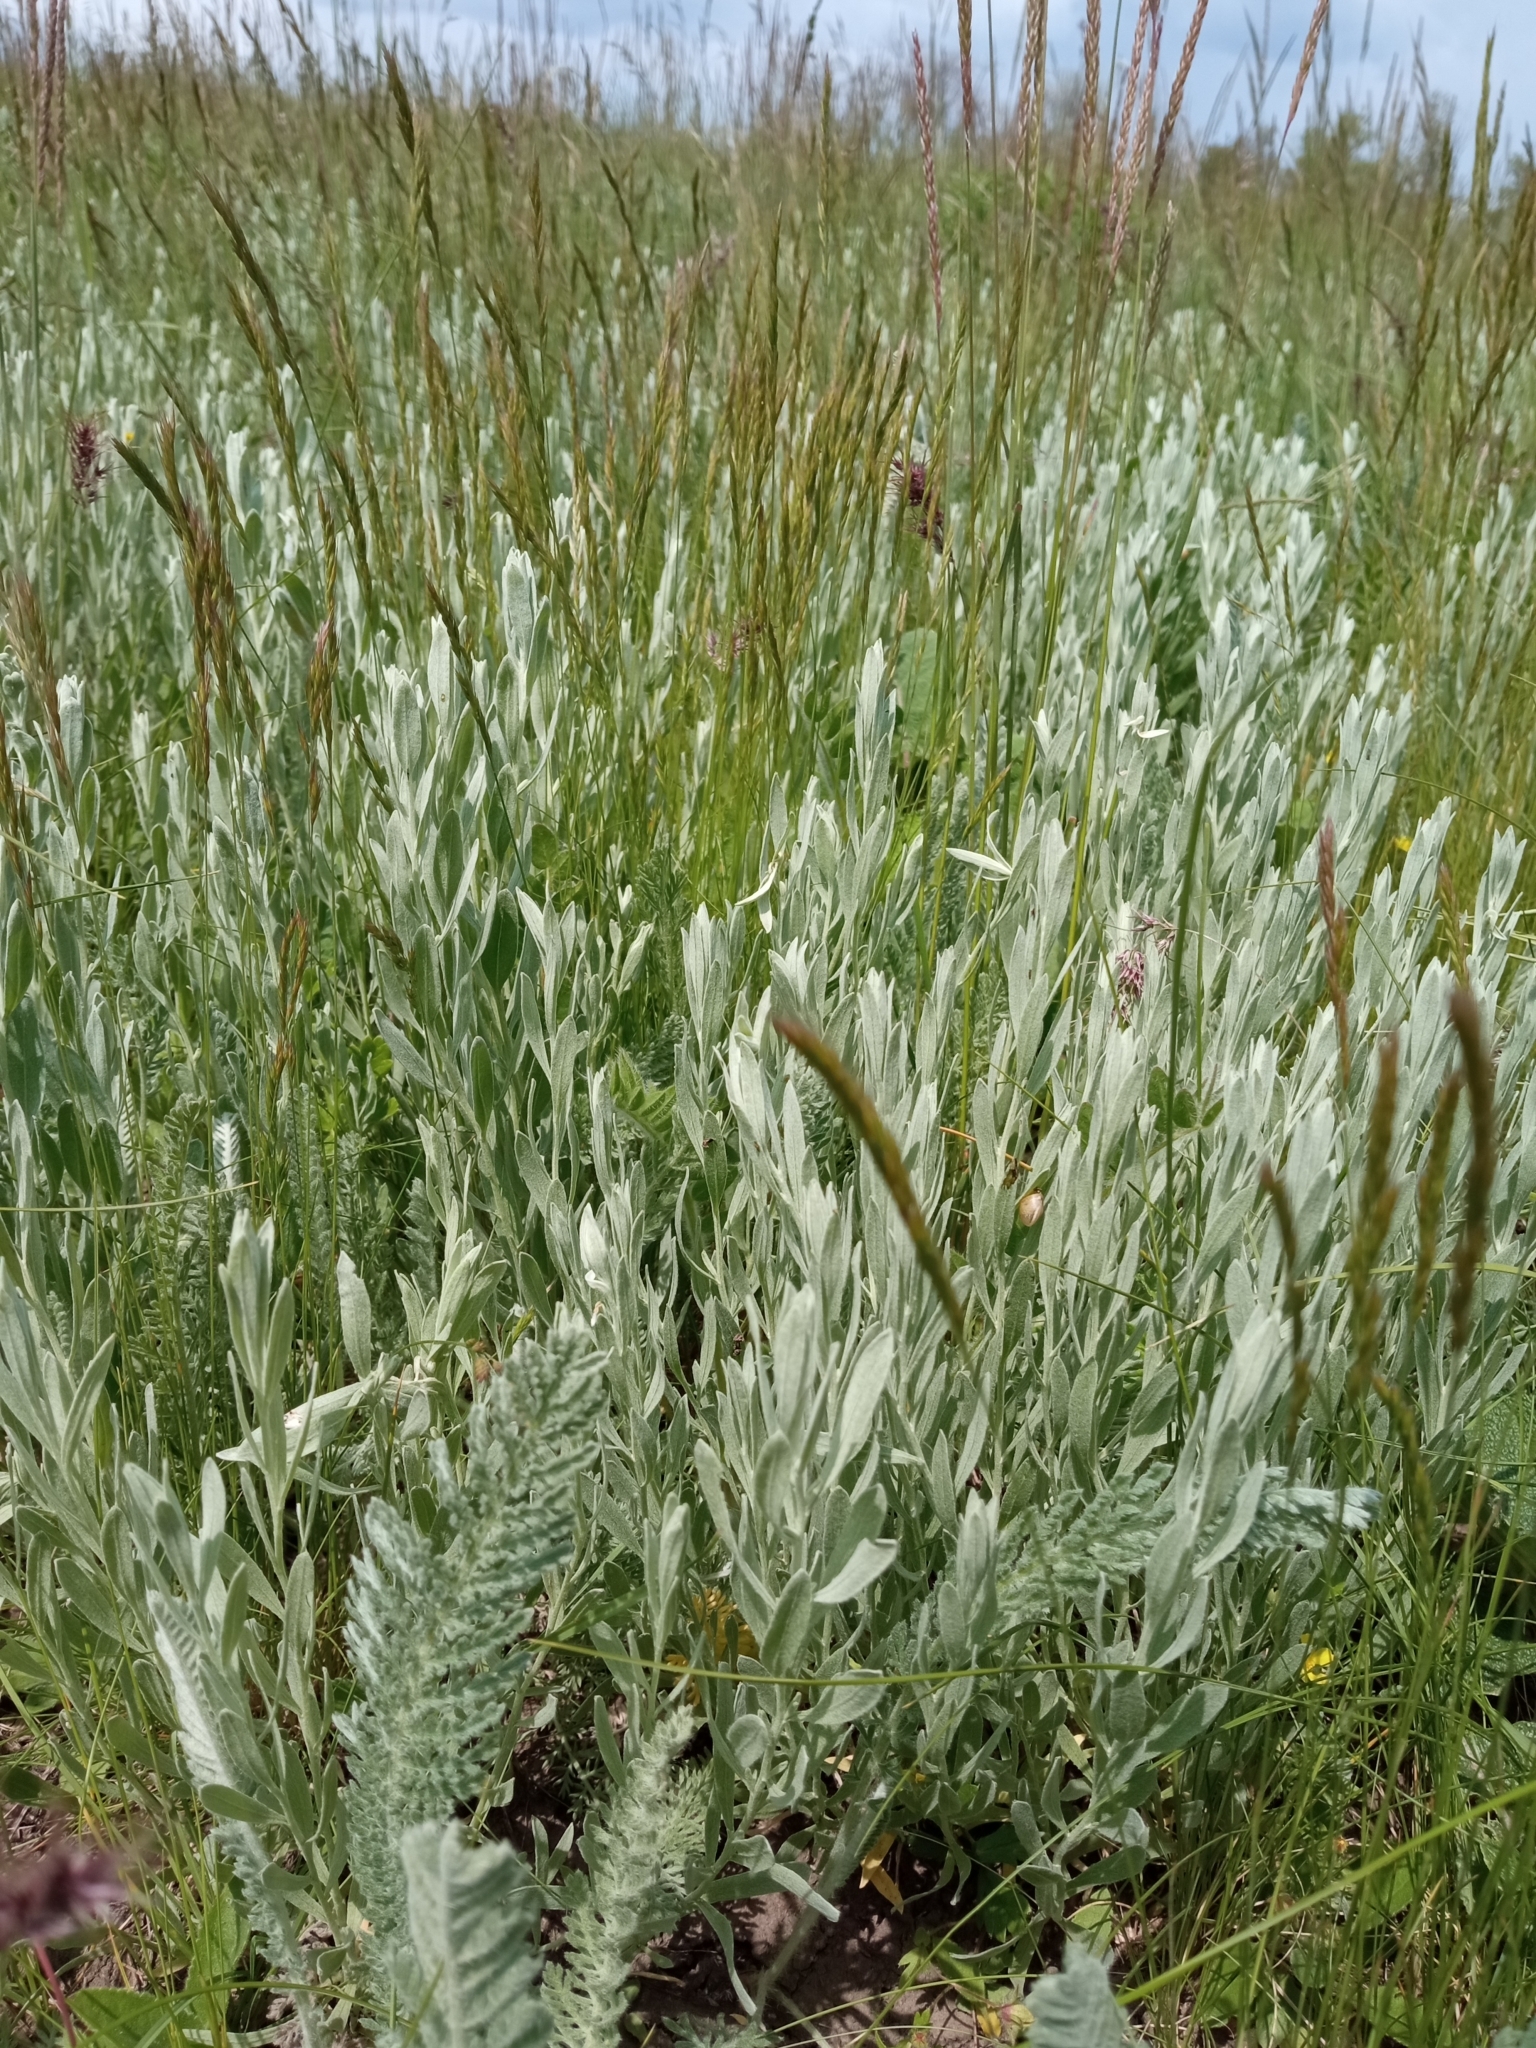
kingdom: Plantae
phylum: Tracheophyta
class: Magnoliopsida
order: Asterales
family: Asteraceae
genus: Galatella
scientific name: Galatella villosa
